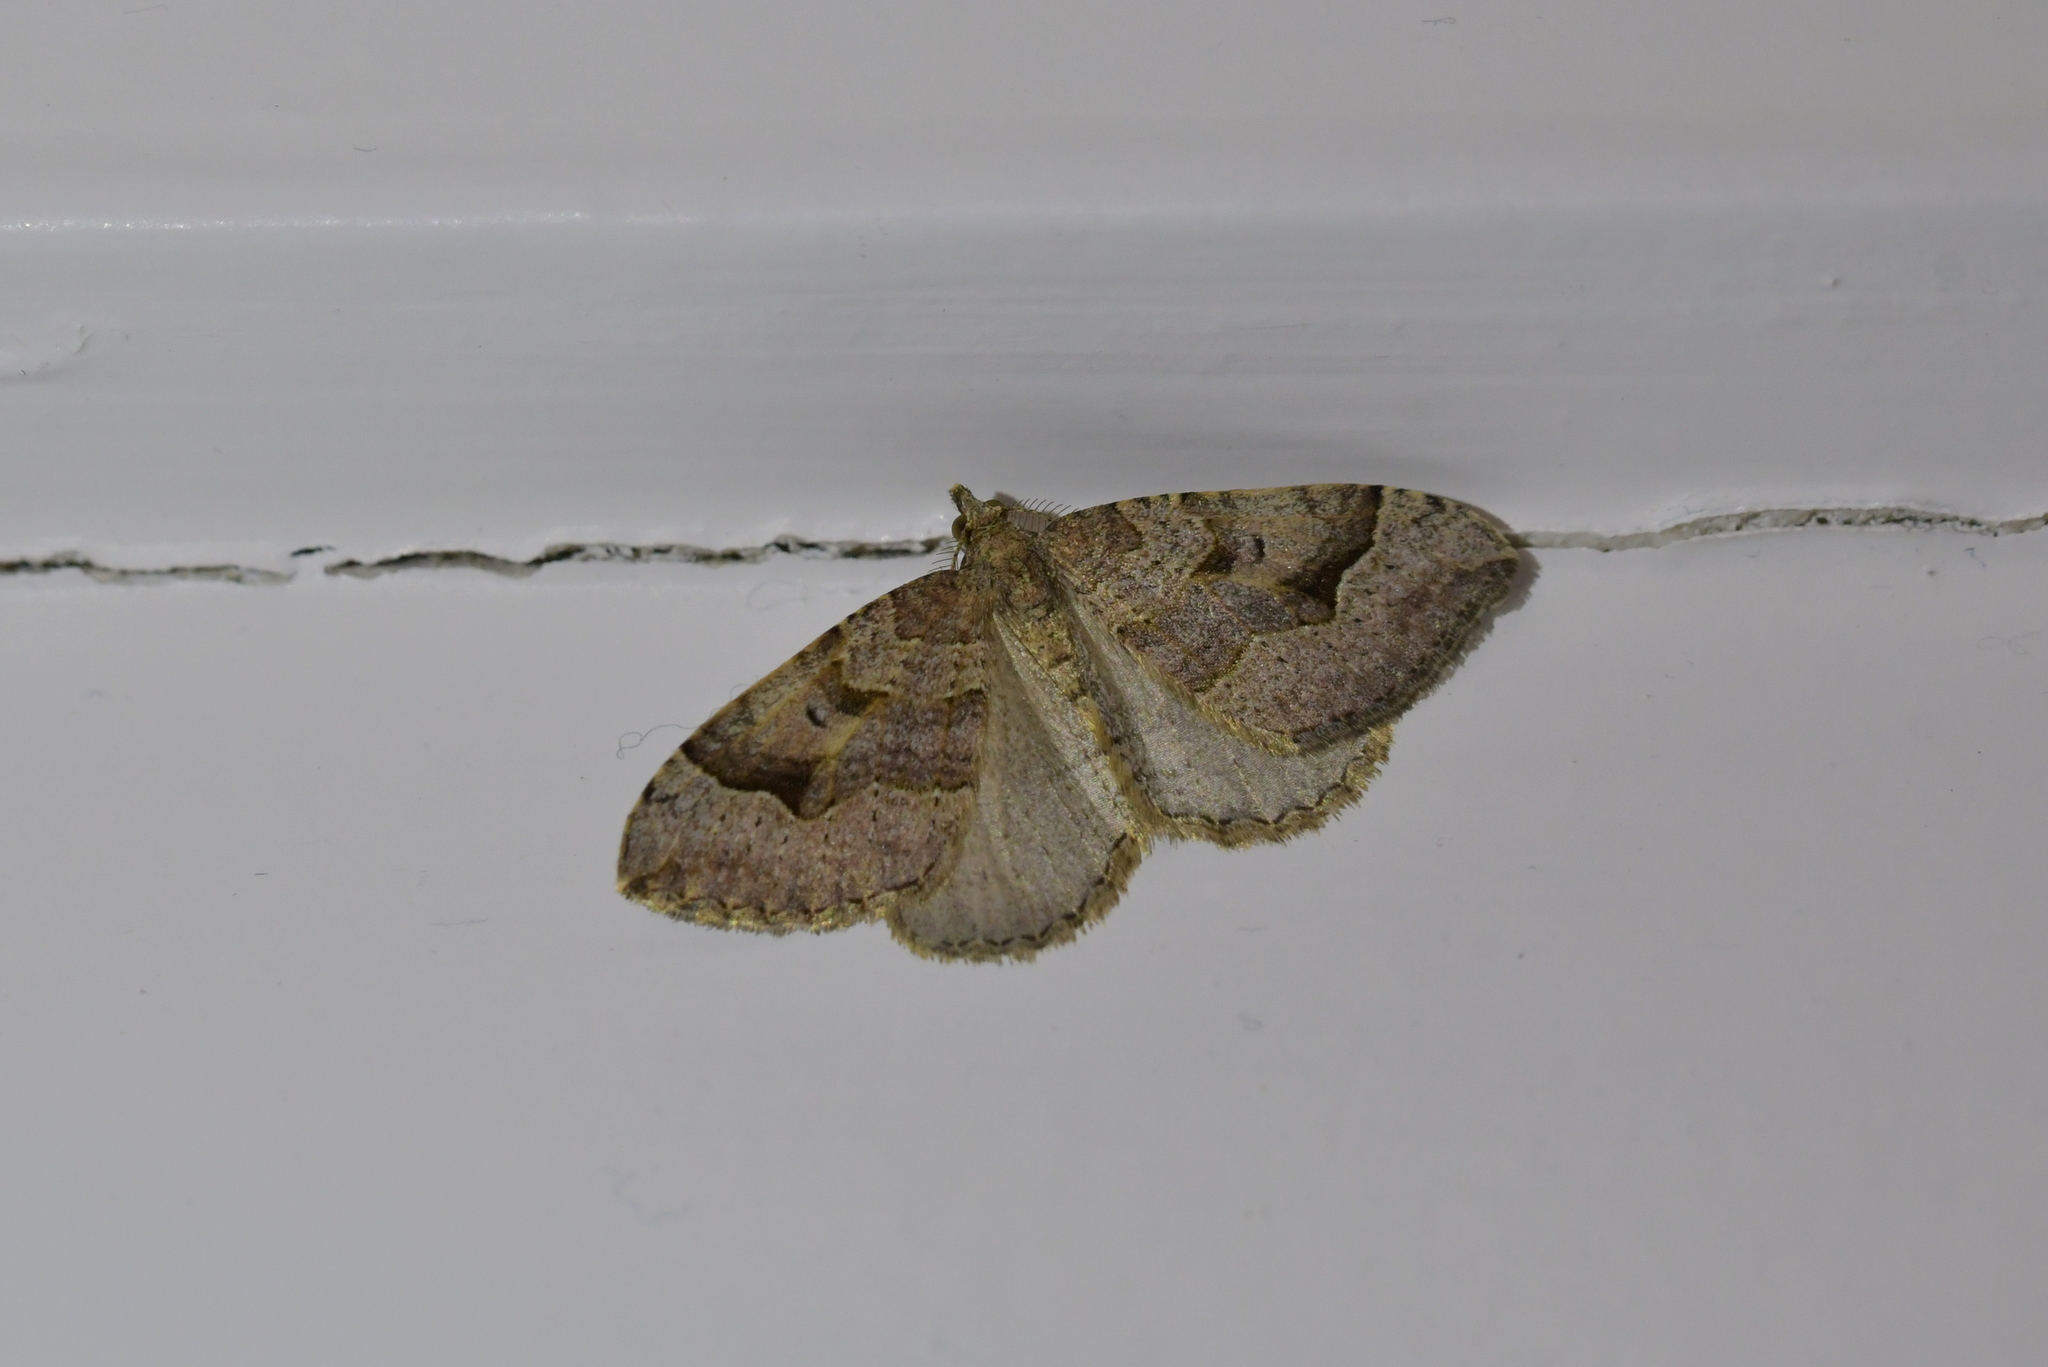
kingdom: Animalia
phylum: Arthropoda
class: Insecta
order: Lepidoptera
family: Geometridae
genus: Epyaxa
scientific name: Epyaxa rosearia
